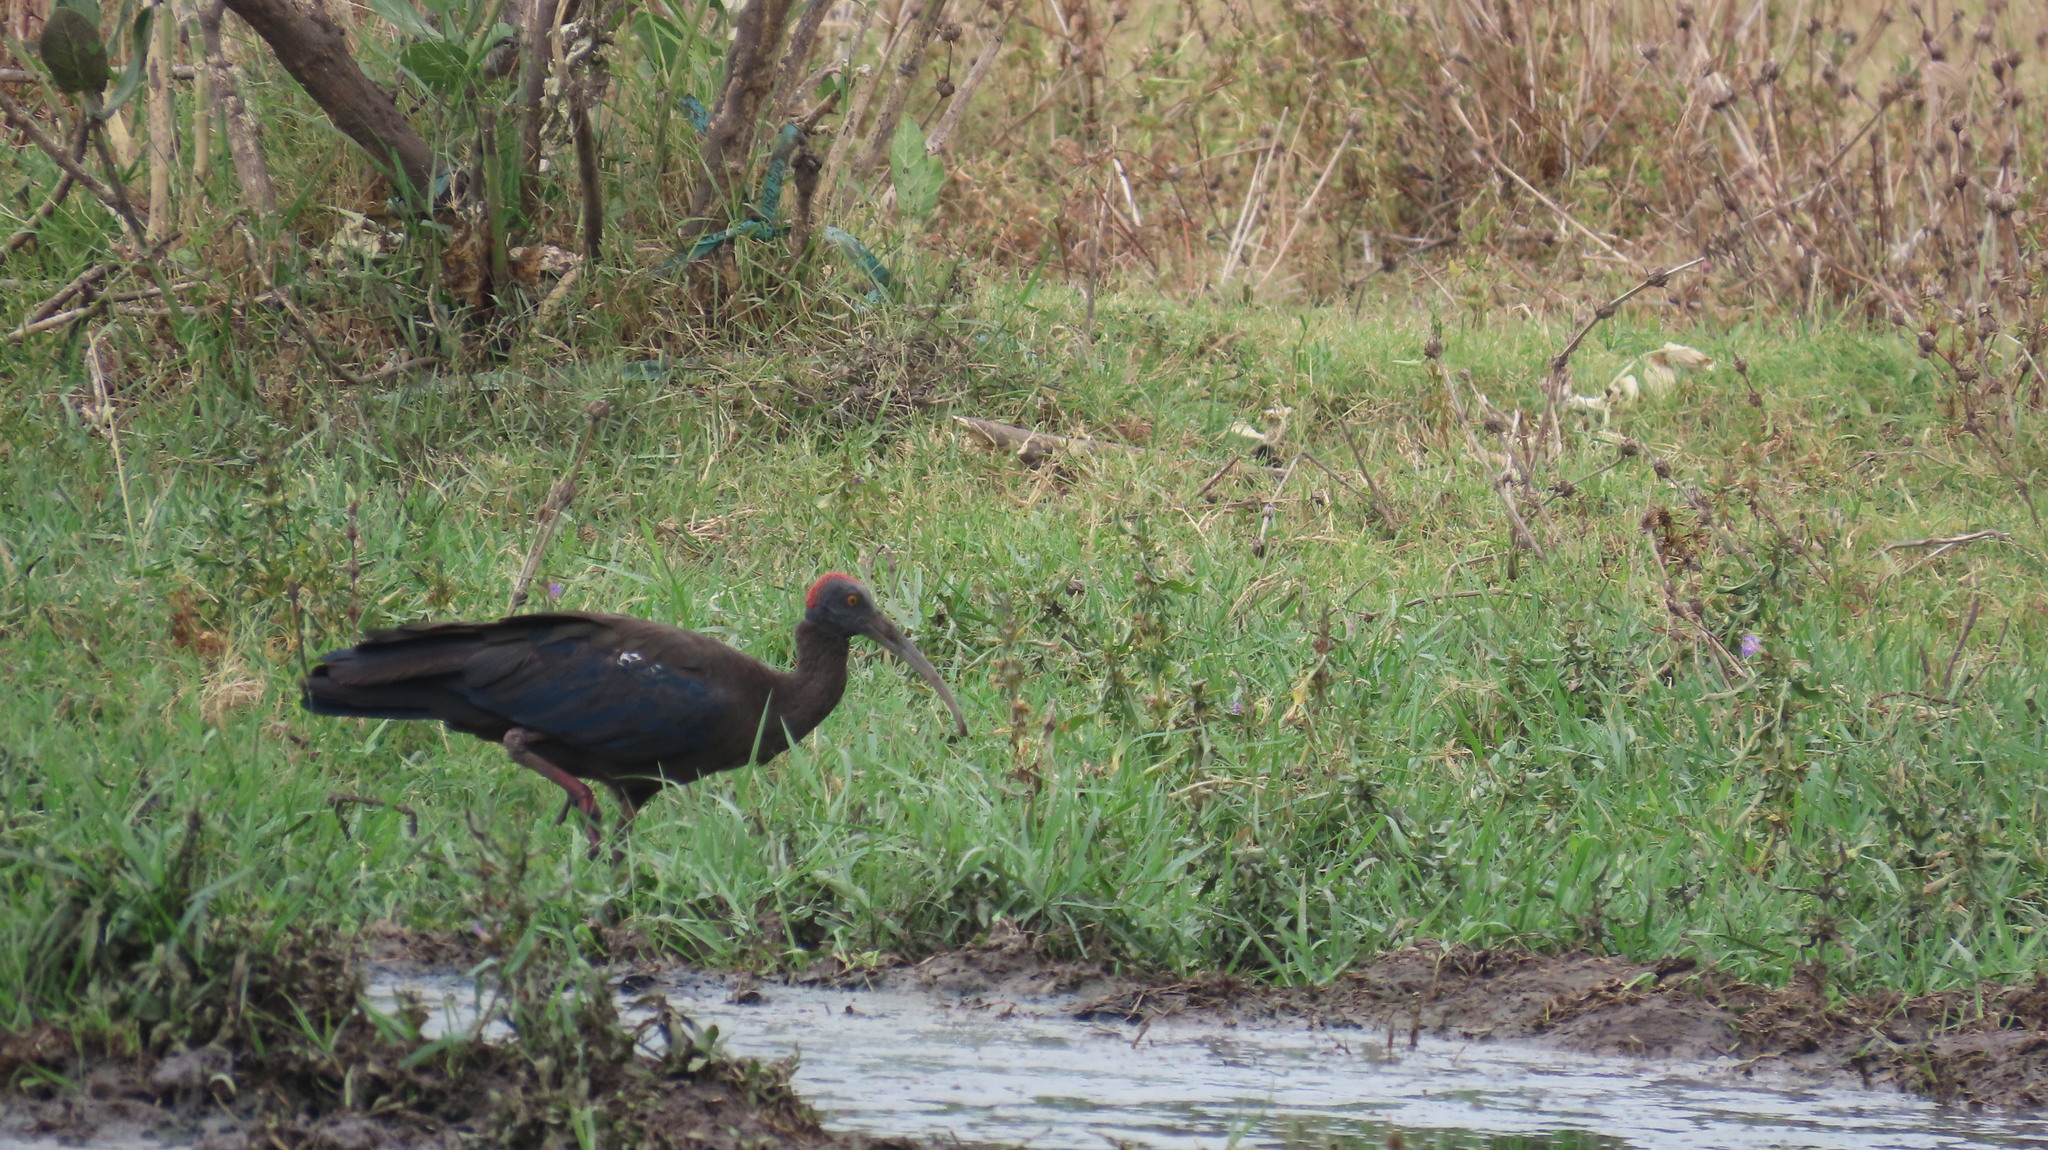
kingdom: Animalia
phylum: Chordata
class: Aves
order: Pelecaniformes
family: Threskiornithidae
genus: Pseudibis
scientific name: Pseudibis papillosa
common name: Red-naped ibis
